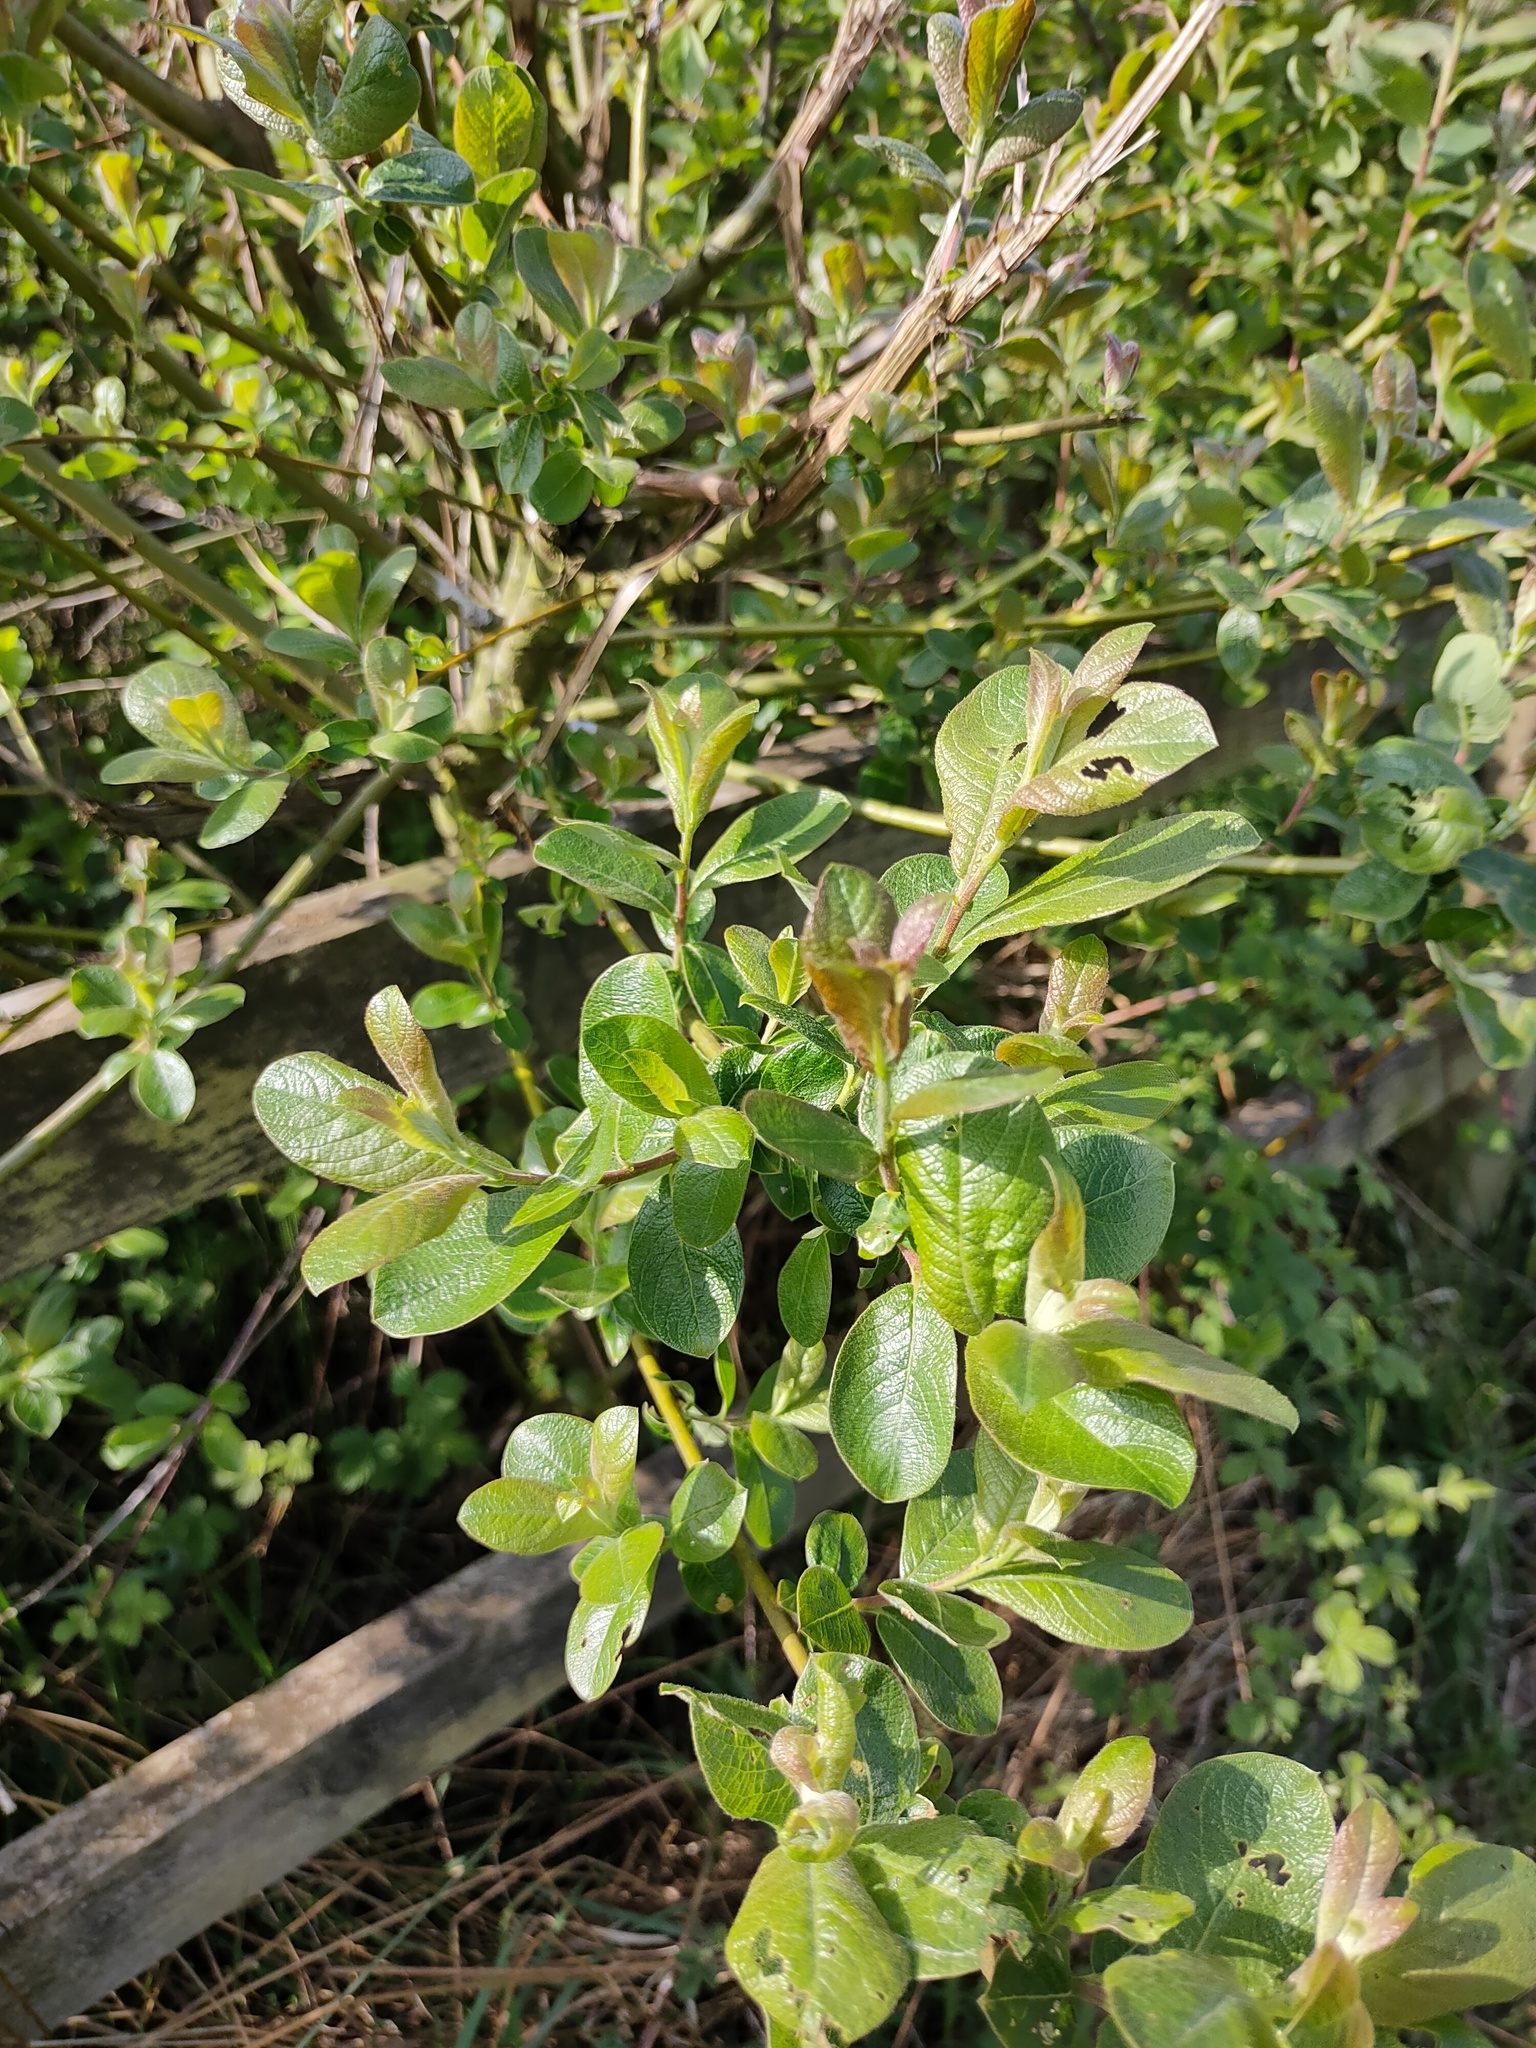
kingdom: Plantae
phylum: Tracheophyta
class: Magnoliopsida
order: Malpighiales
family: Salicaceae
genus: Salix
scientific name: Salix cinerea
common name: Common sallow
